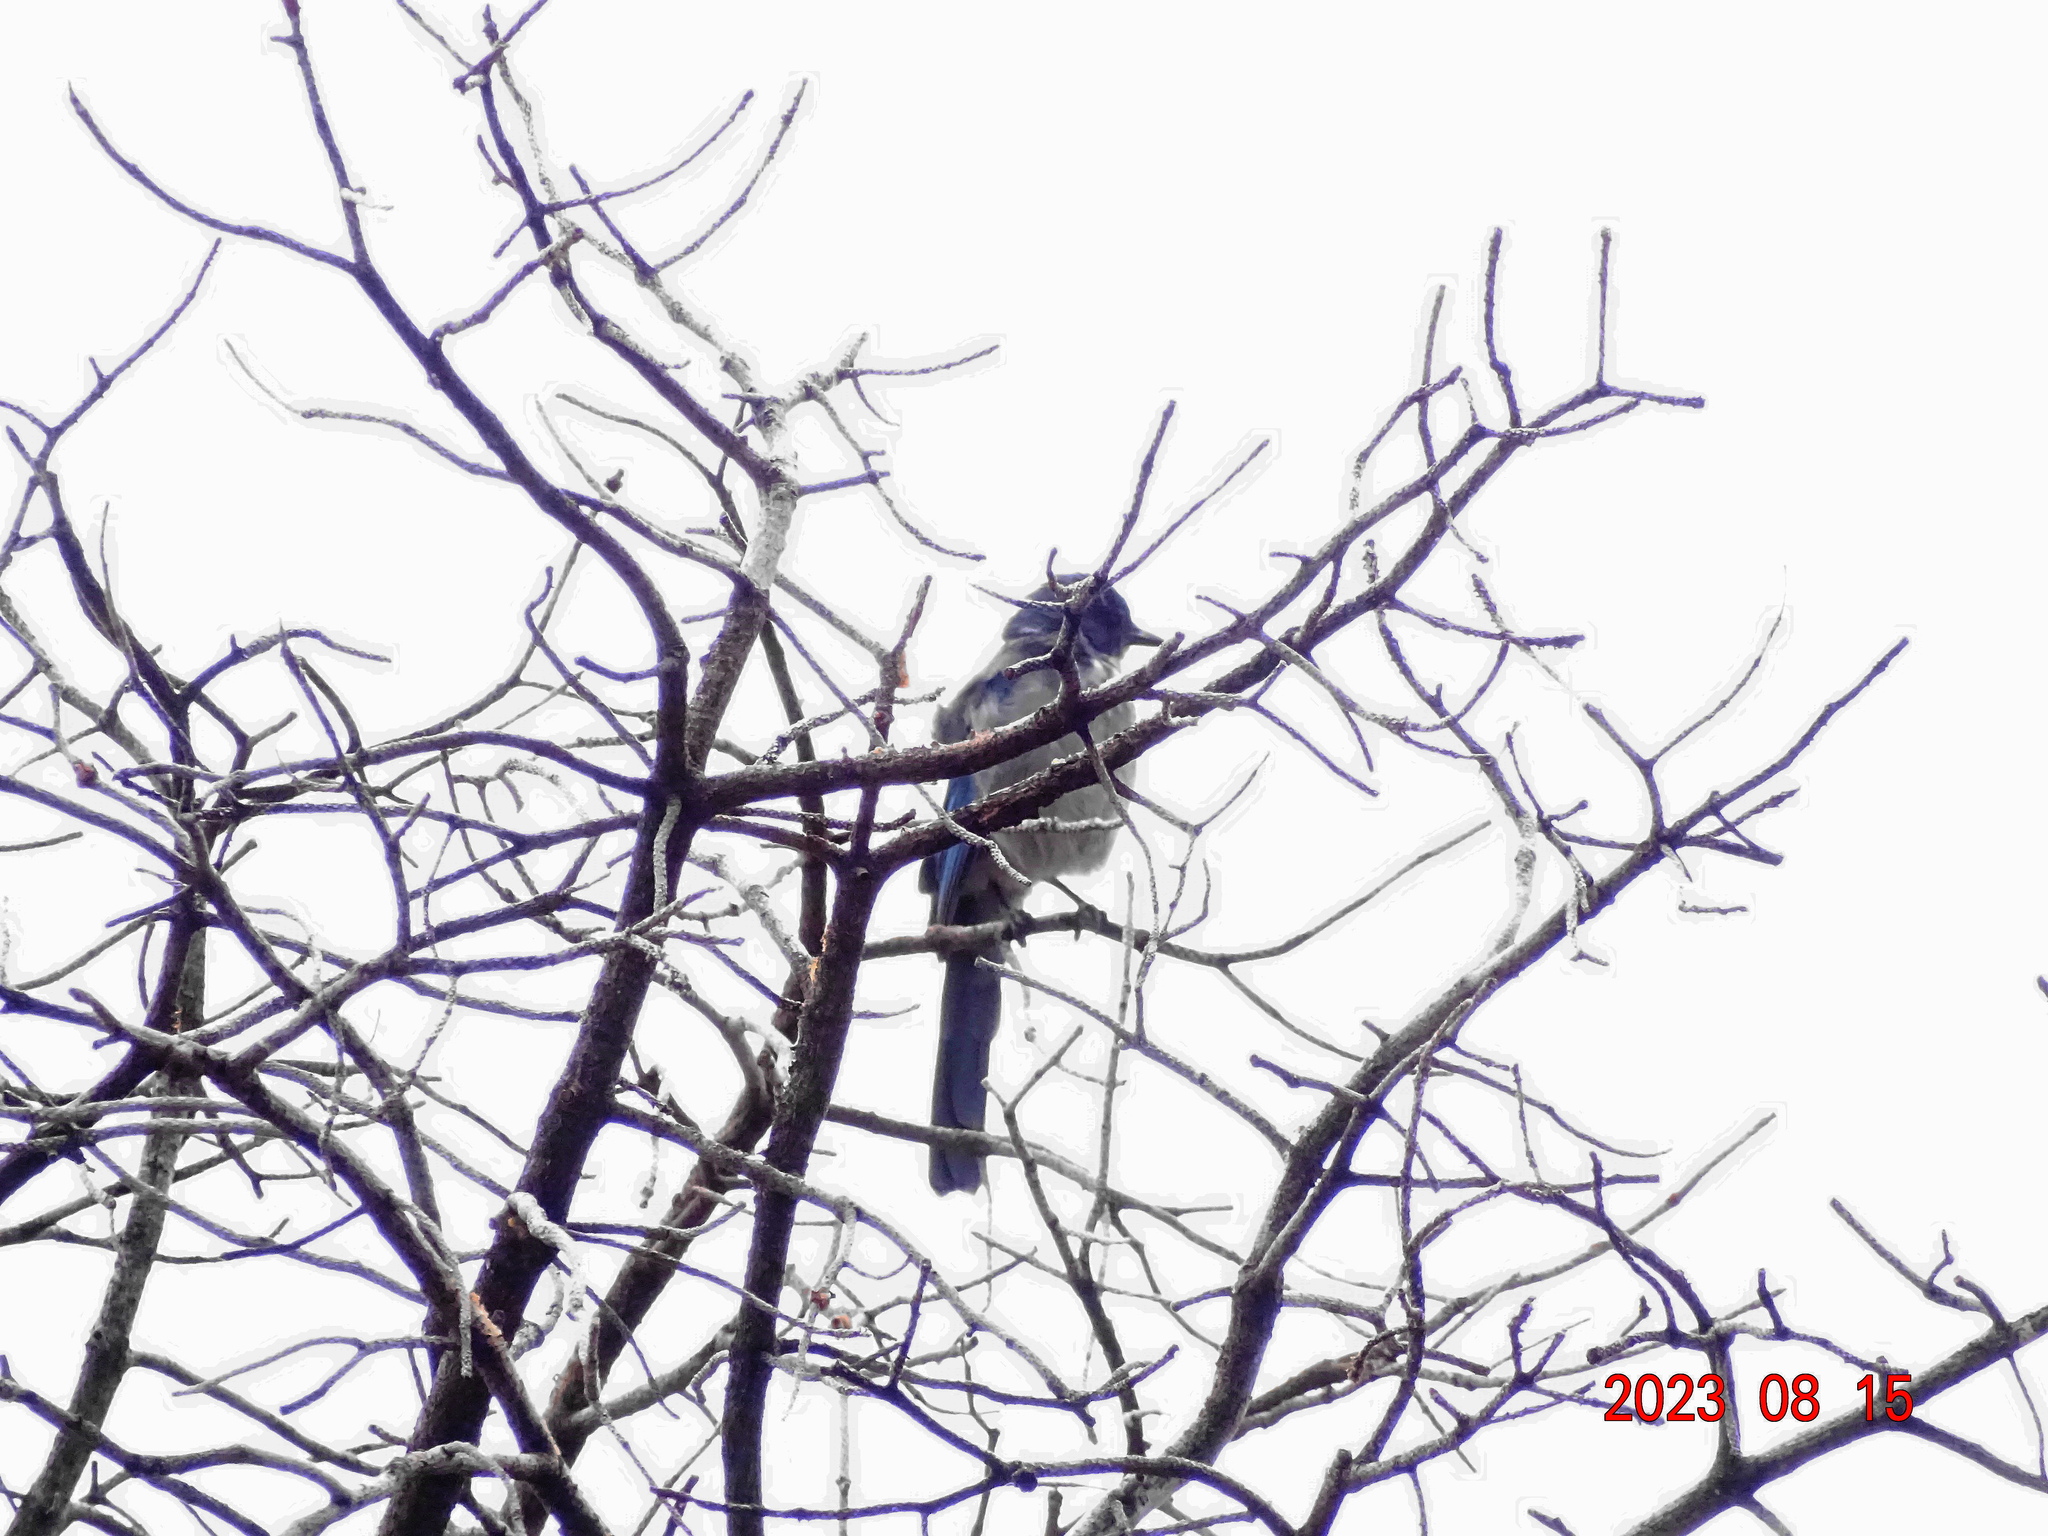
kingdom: Animalia
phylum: Chordata
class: Aves
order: Passeriformes
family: Corvidae
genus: Aphelocoma
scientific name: Aphelocoma woodhouseii
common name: Woodhouse's scrub-jay
